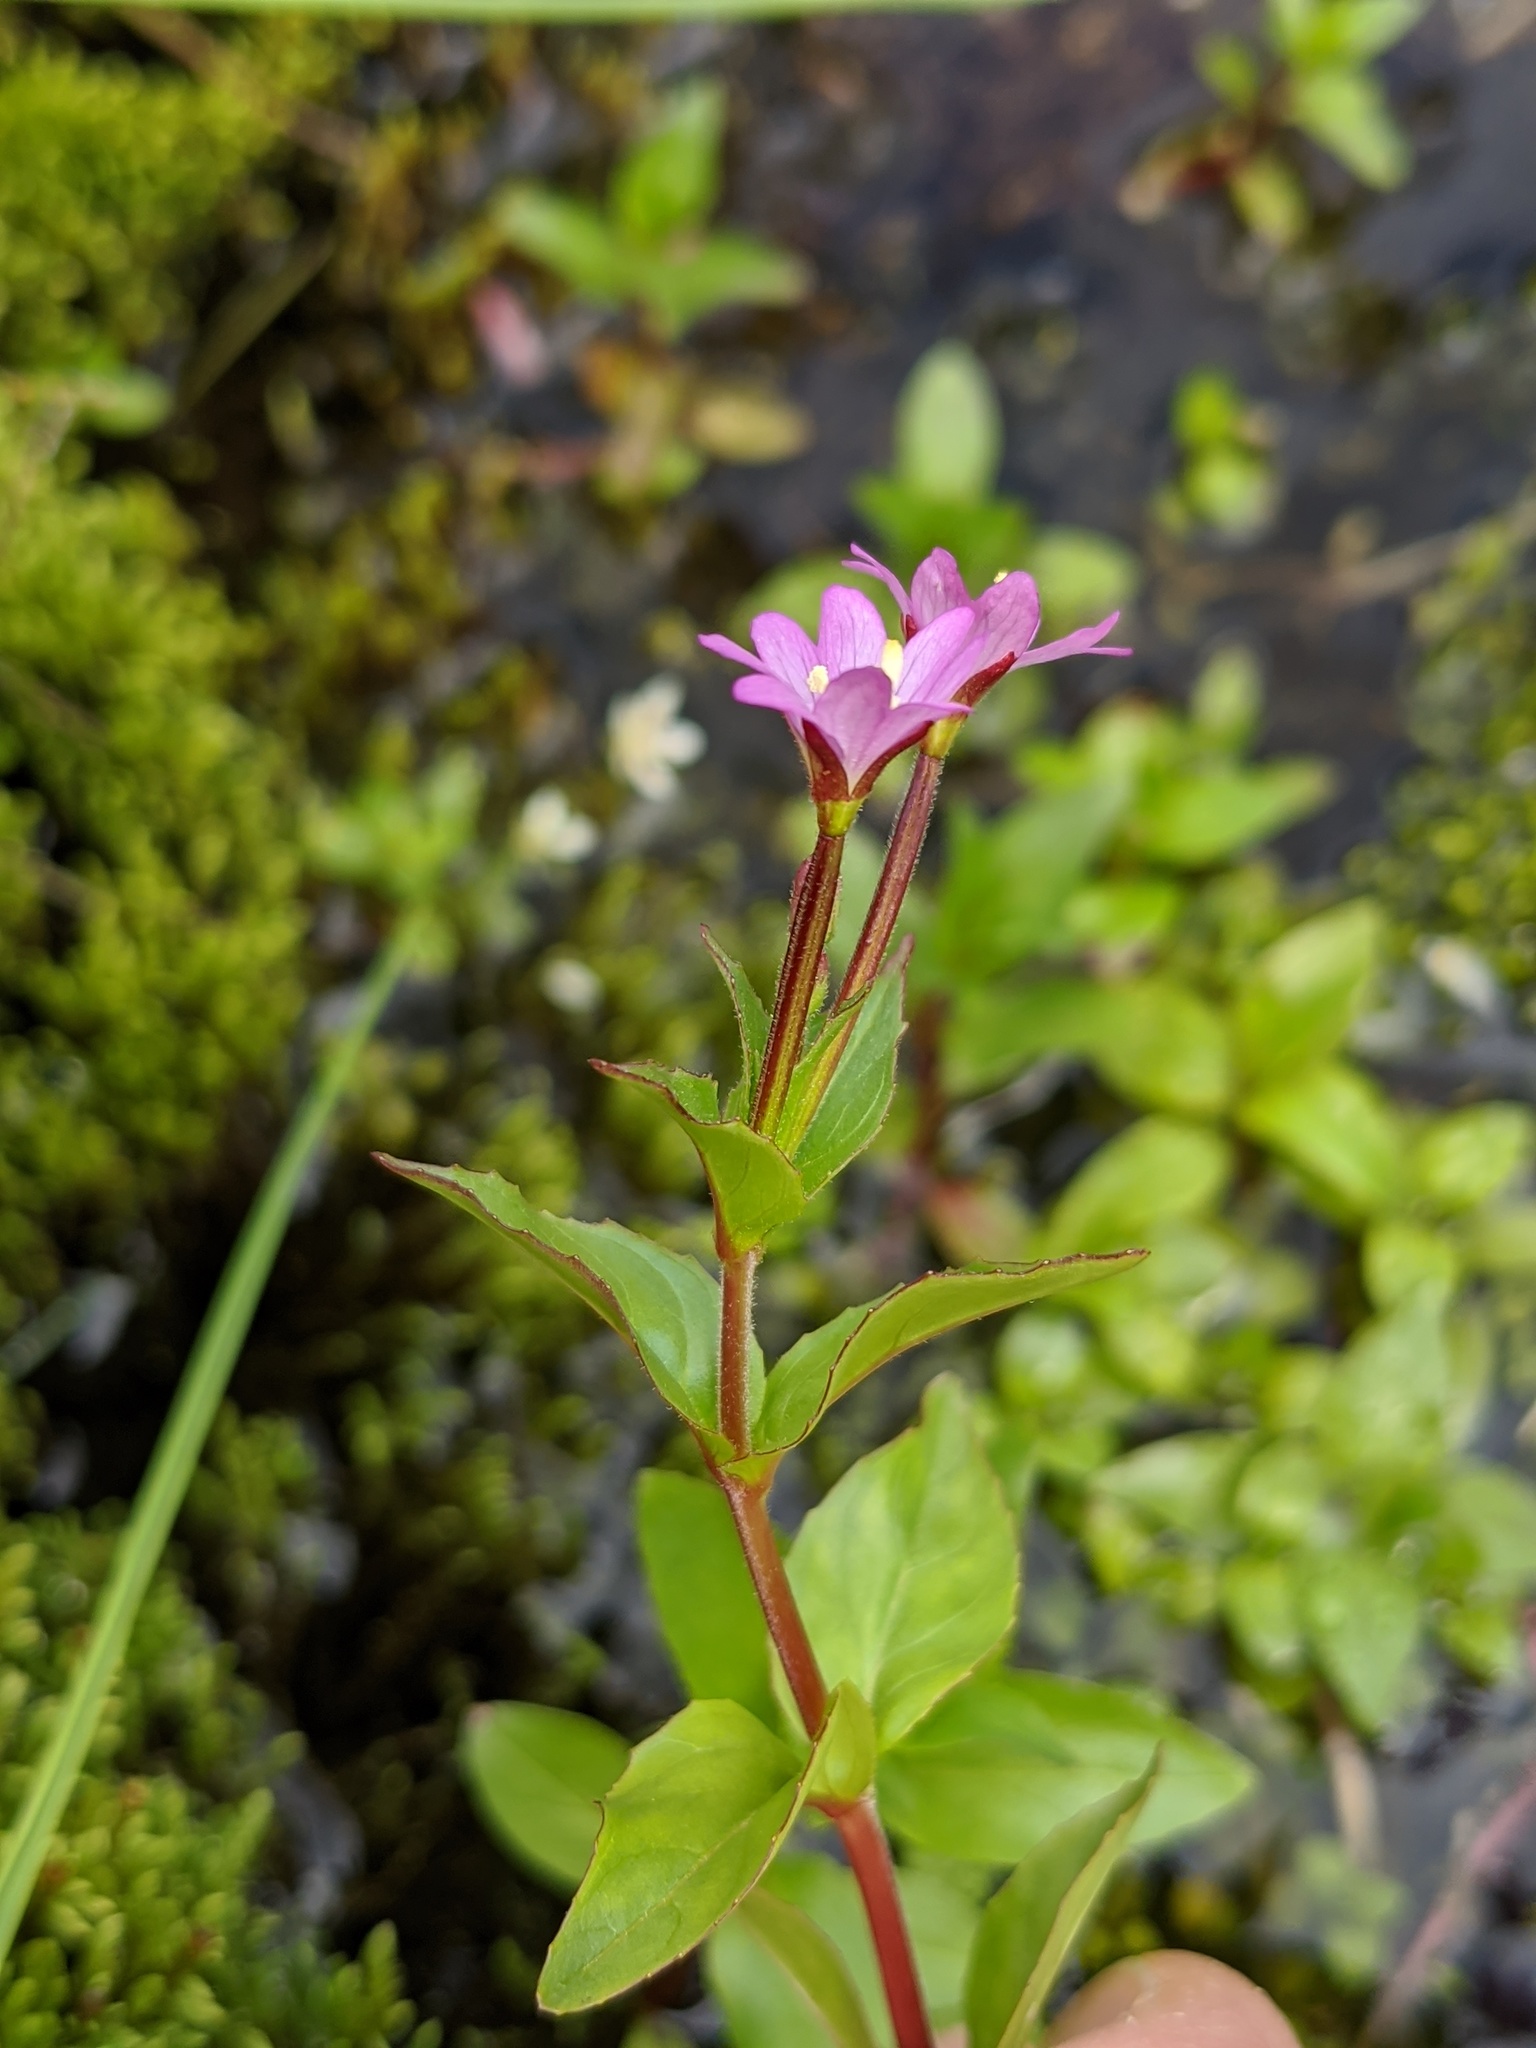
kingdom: Plantae
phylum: Tracheophyta
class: Magnoliopsida
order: Myrtales
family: Onagraceae
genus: Epilobium
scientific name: Epilobium alsinifolium
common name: Chickweed willowherb
